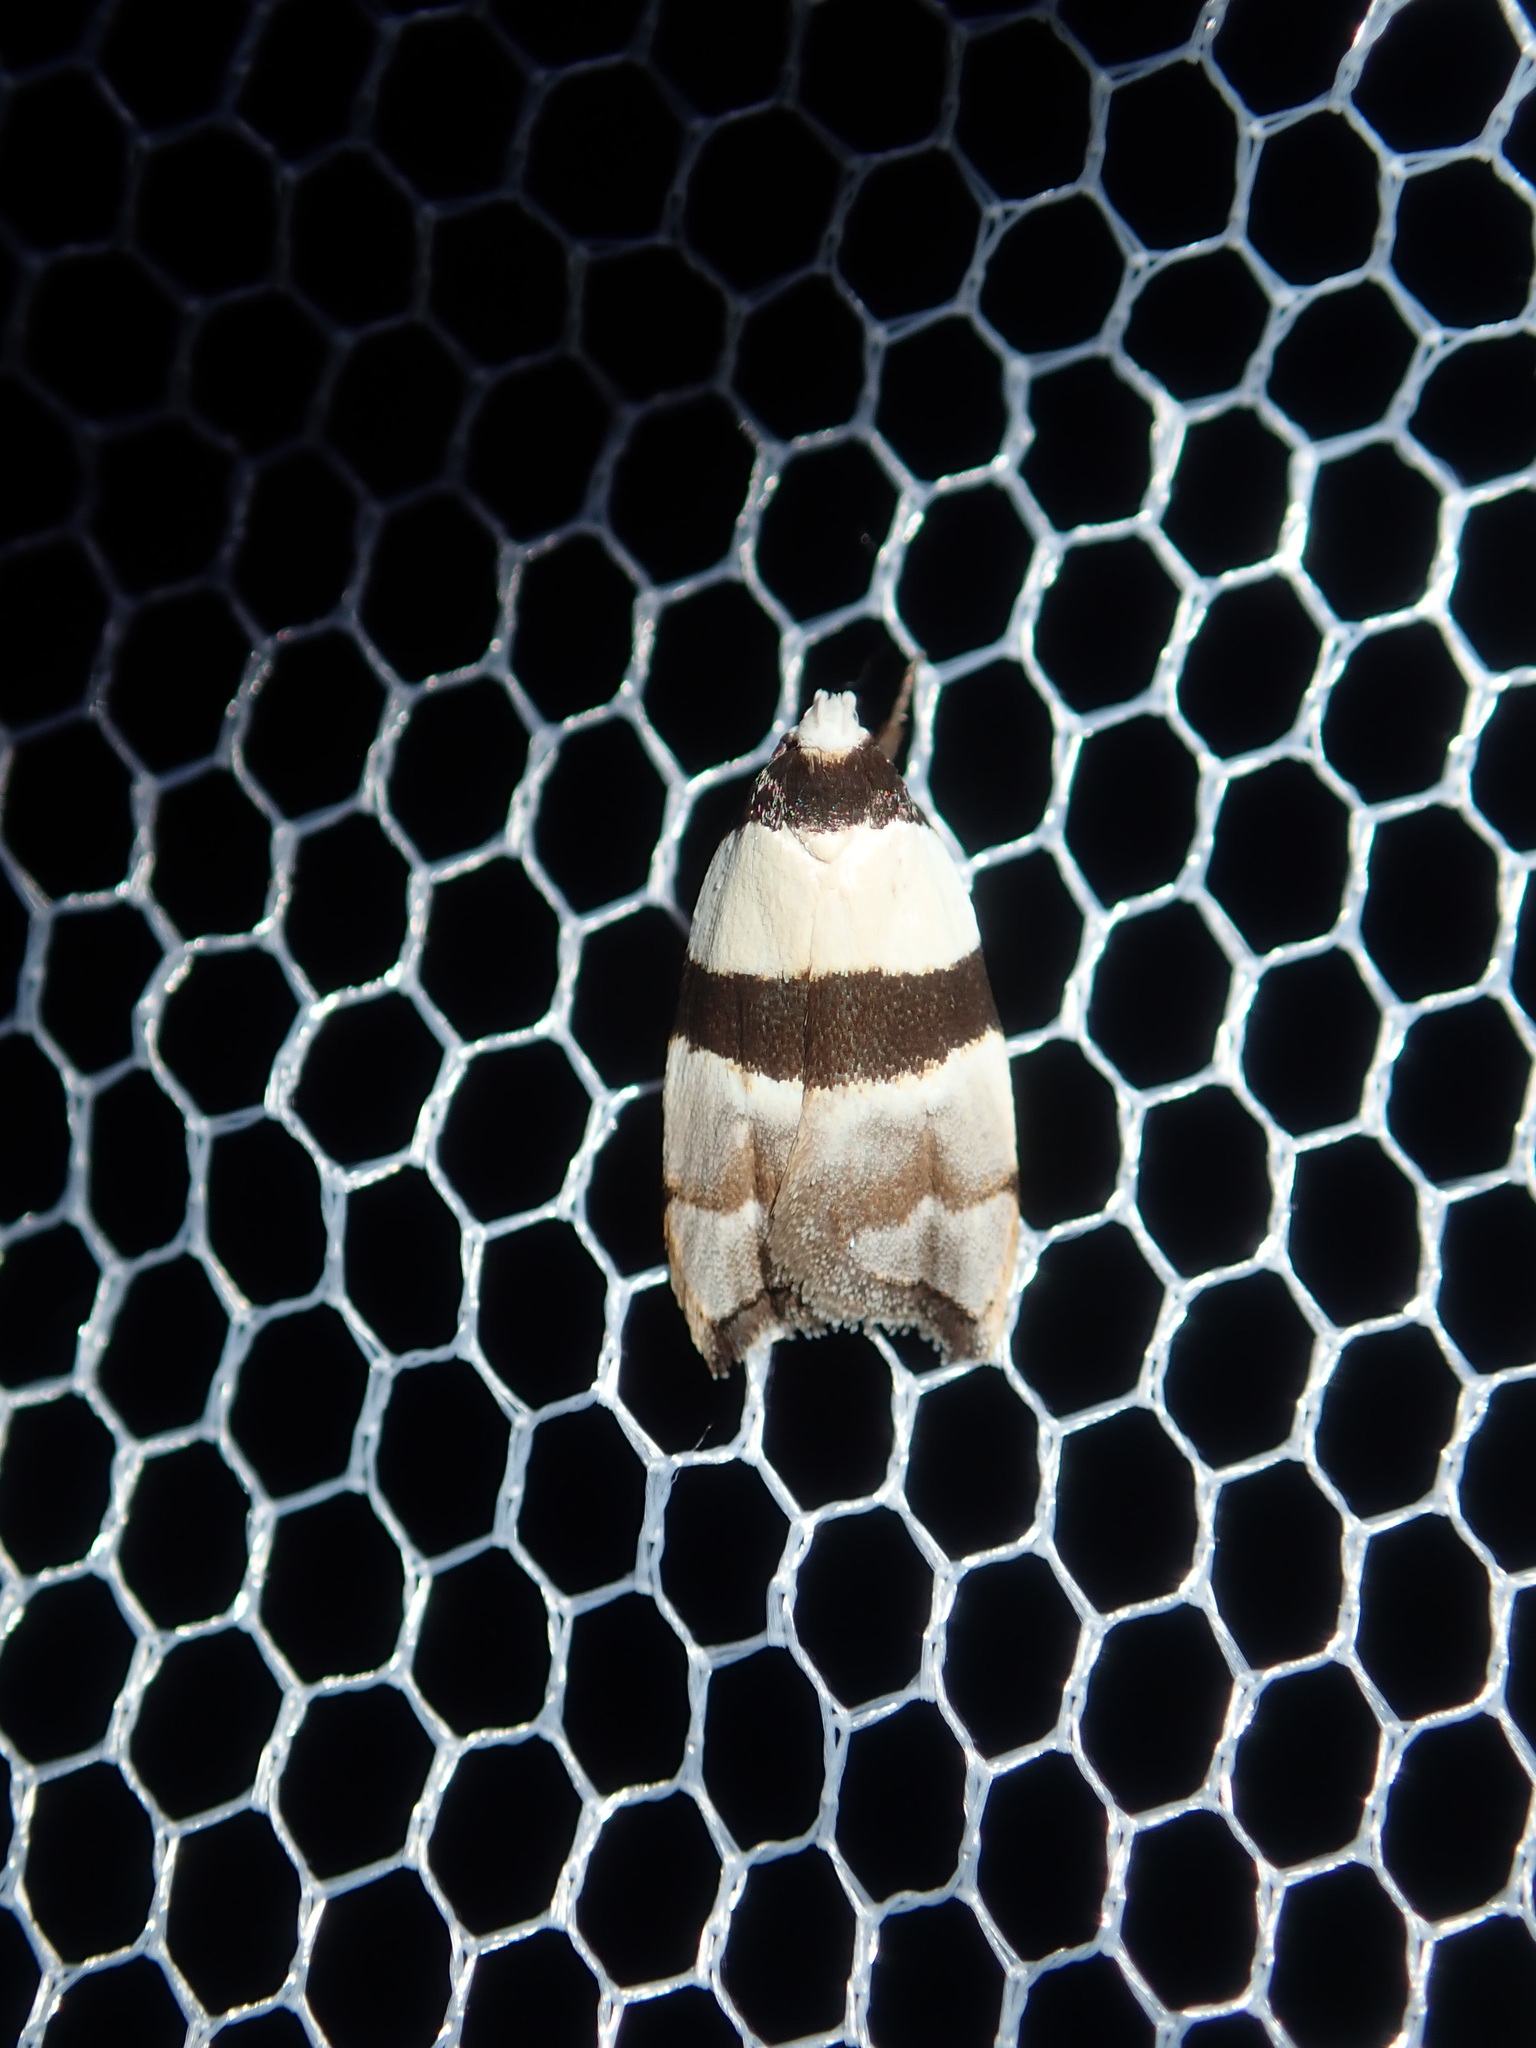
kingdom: Animalia
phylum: Arthropoda
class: Insecta
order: Lepidoptera
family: Oecophoridae
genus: Zonopetala
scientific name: Zonopetala glauconephela
